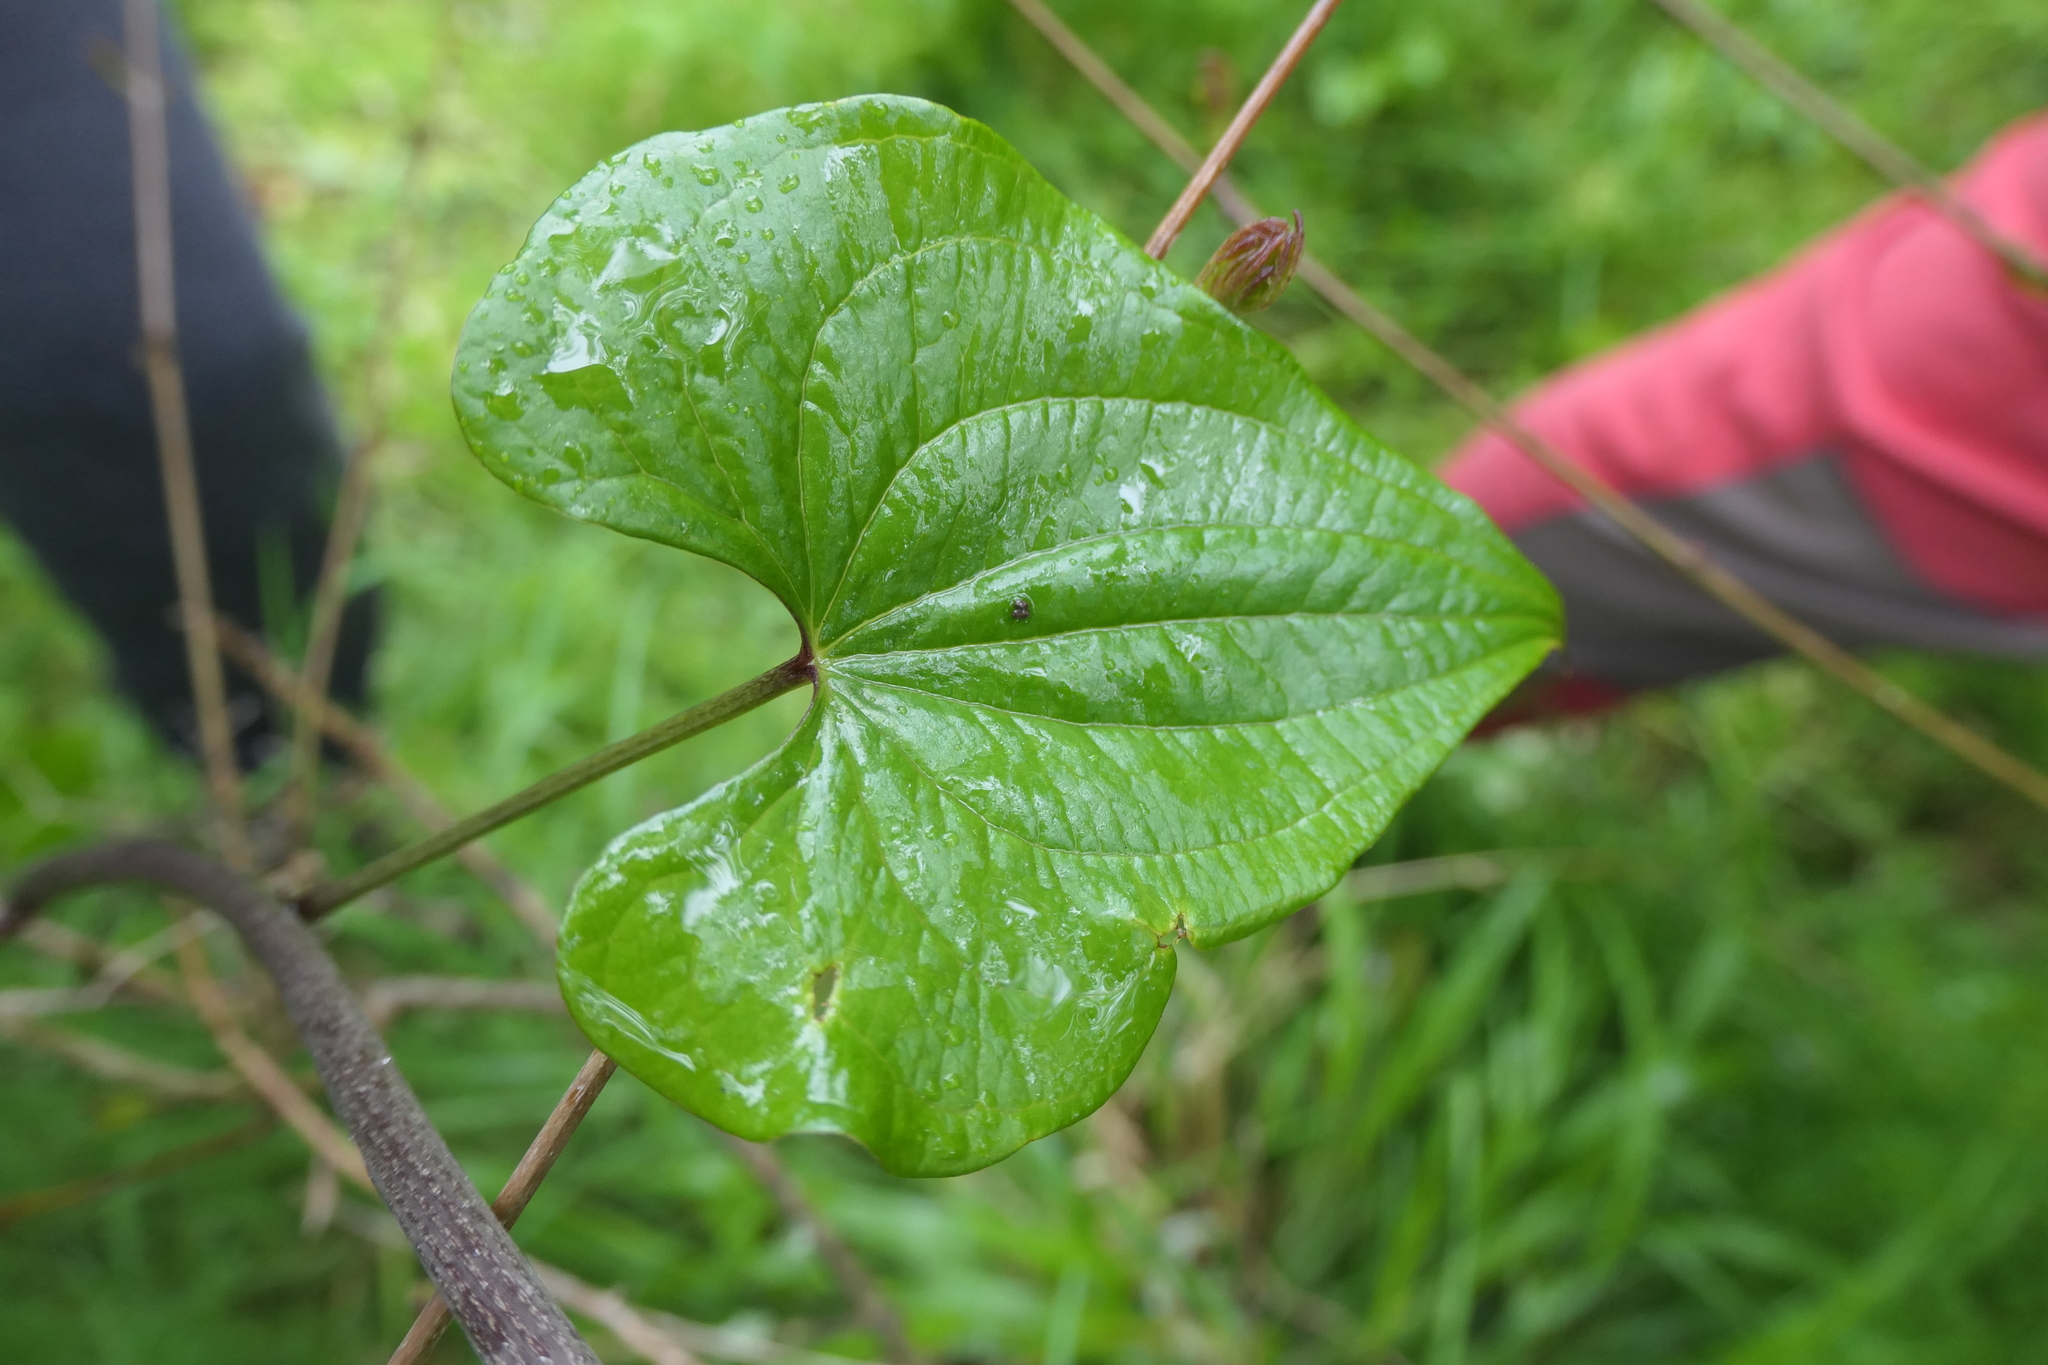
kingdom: Plantae
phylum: Tracheophyta
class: Liliopsida
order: Dioscoreales
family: Dioscoreaceae
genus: Dioscorea
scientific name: Dioscorea communis
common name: Black-bindweed
